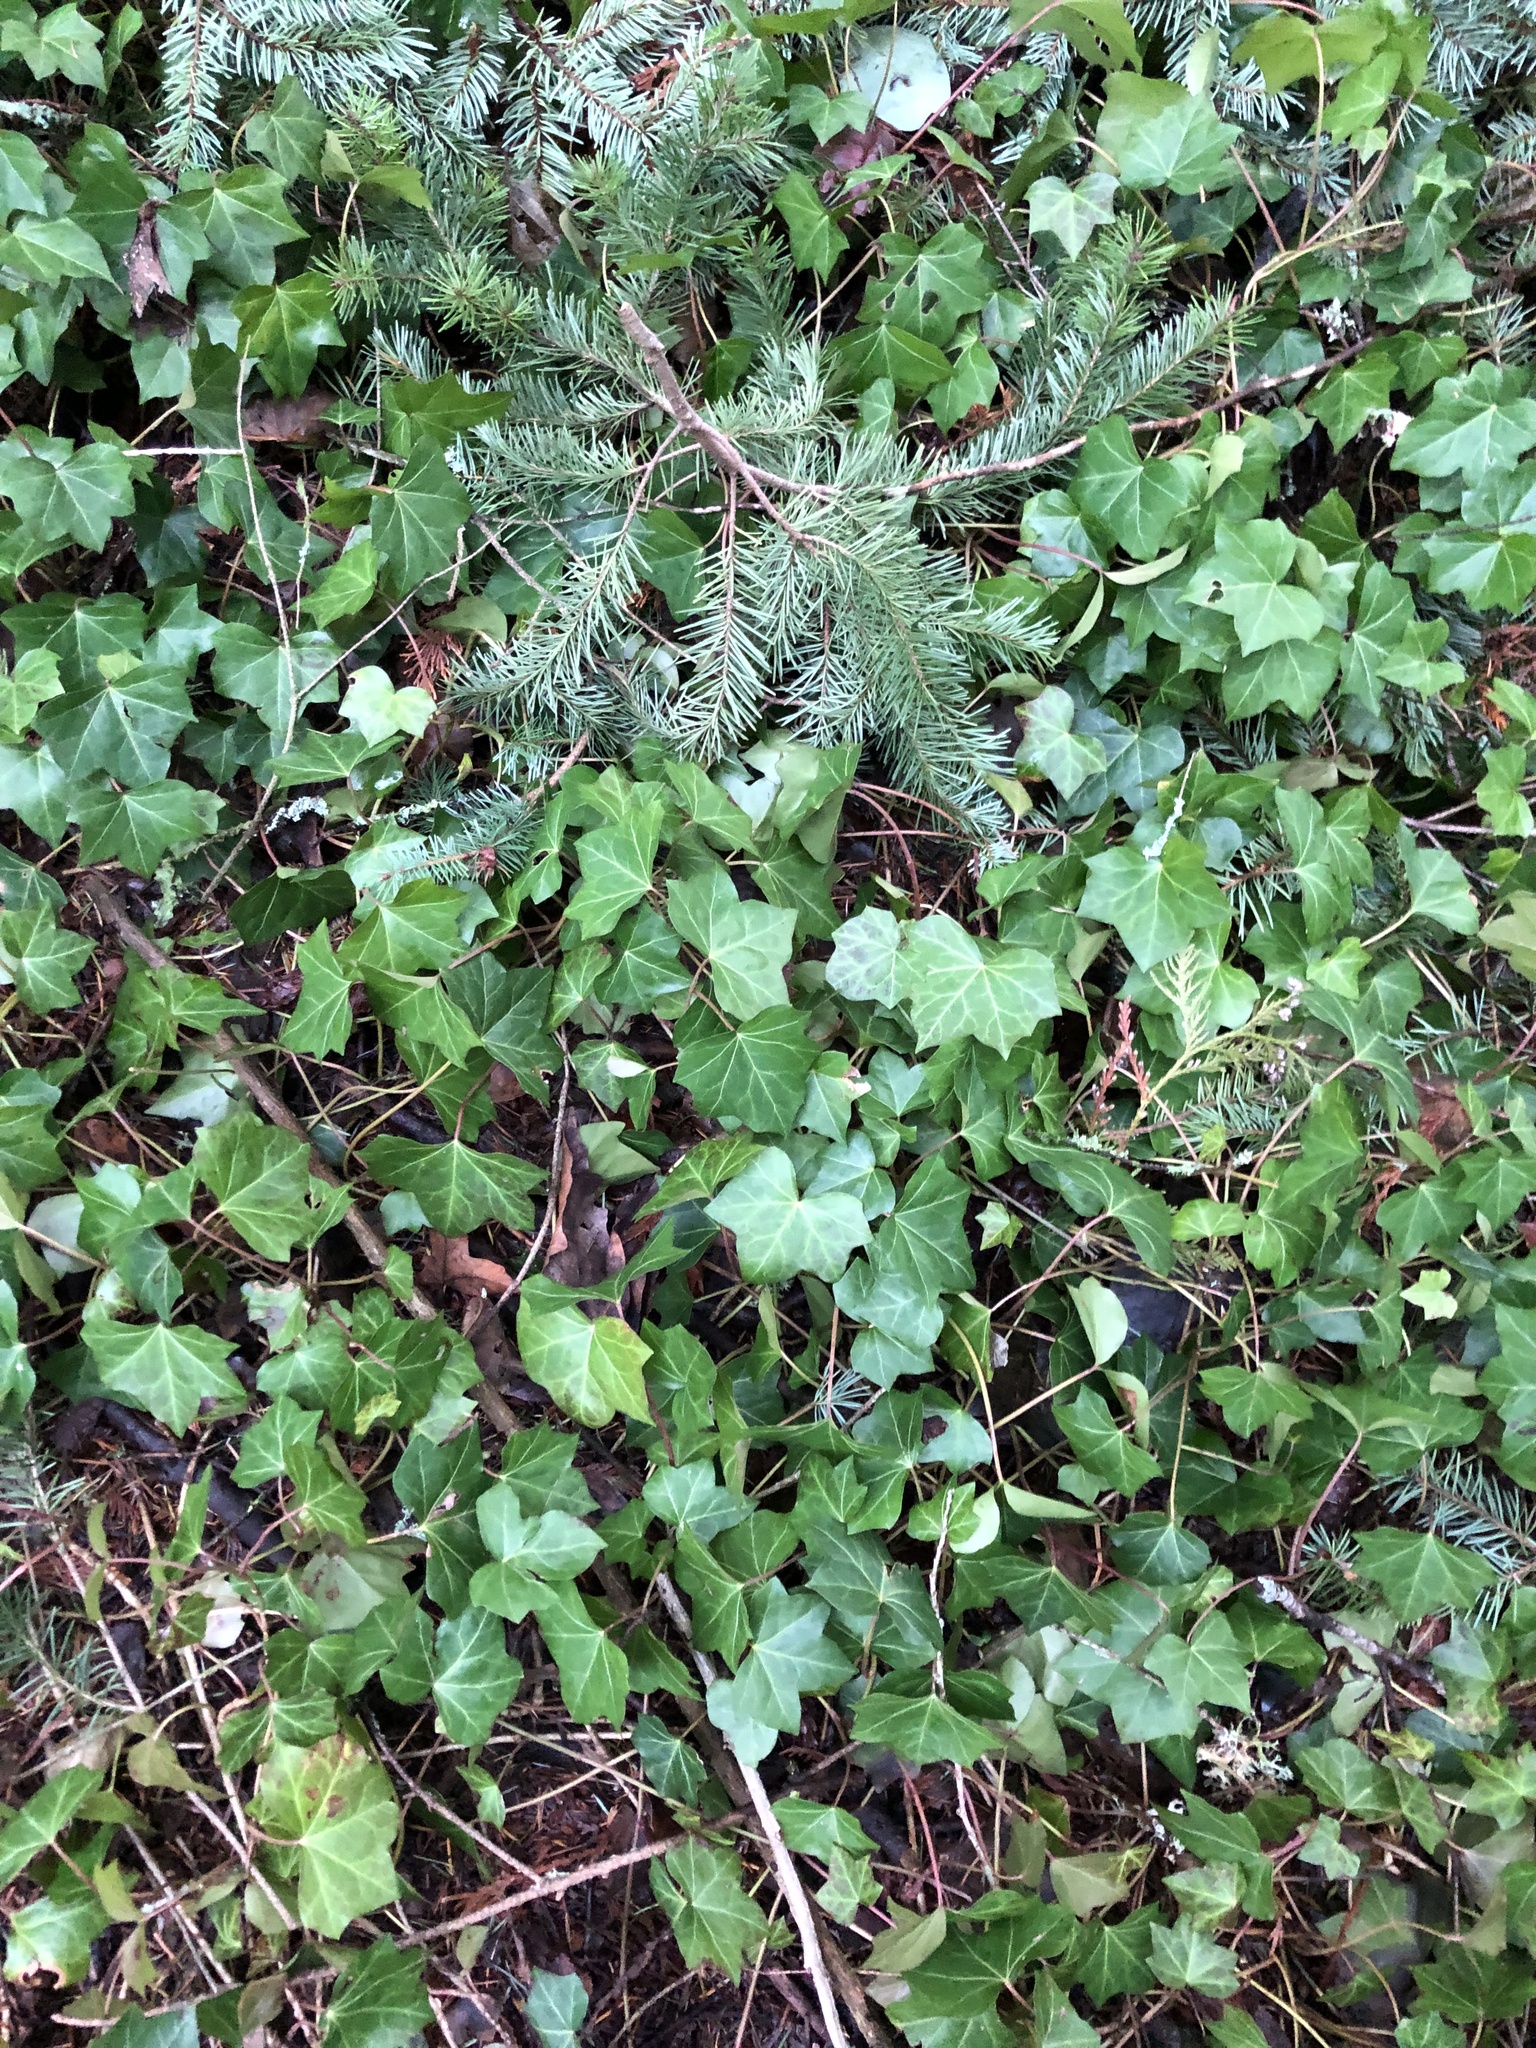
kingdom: Plantae
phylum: Tracheophyta
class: Magnoliopsida
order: Apiales
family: Araliaceae
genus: Hedera
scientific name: Hedera helix
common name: Ivy
